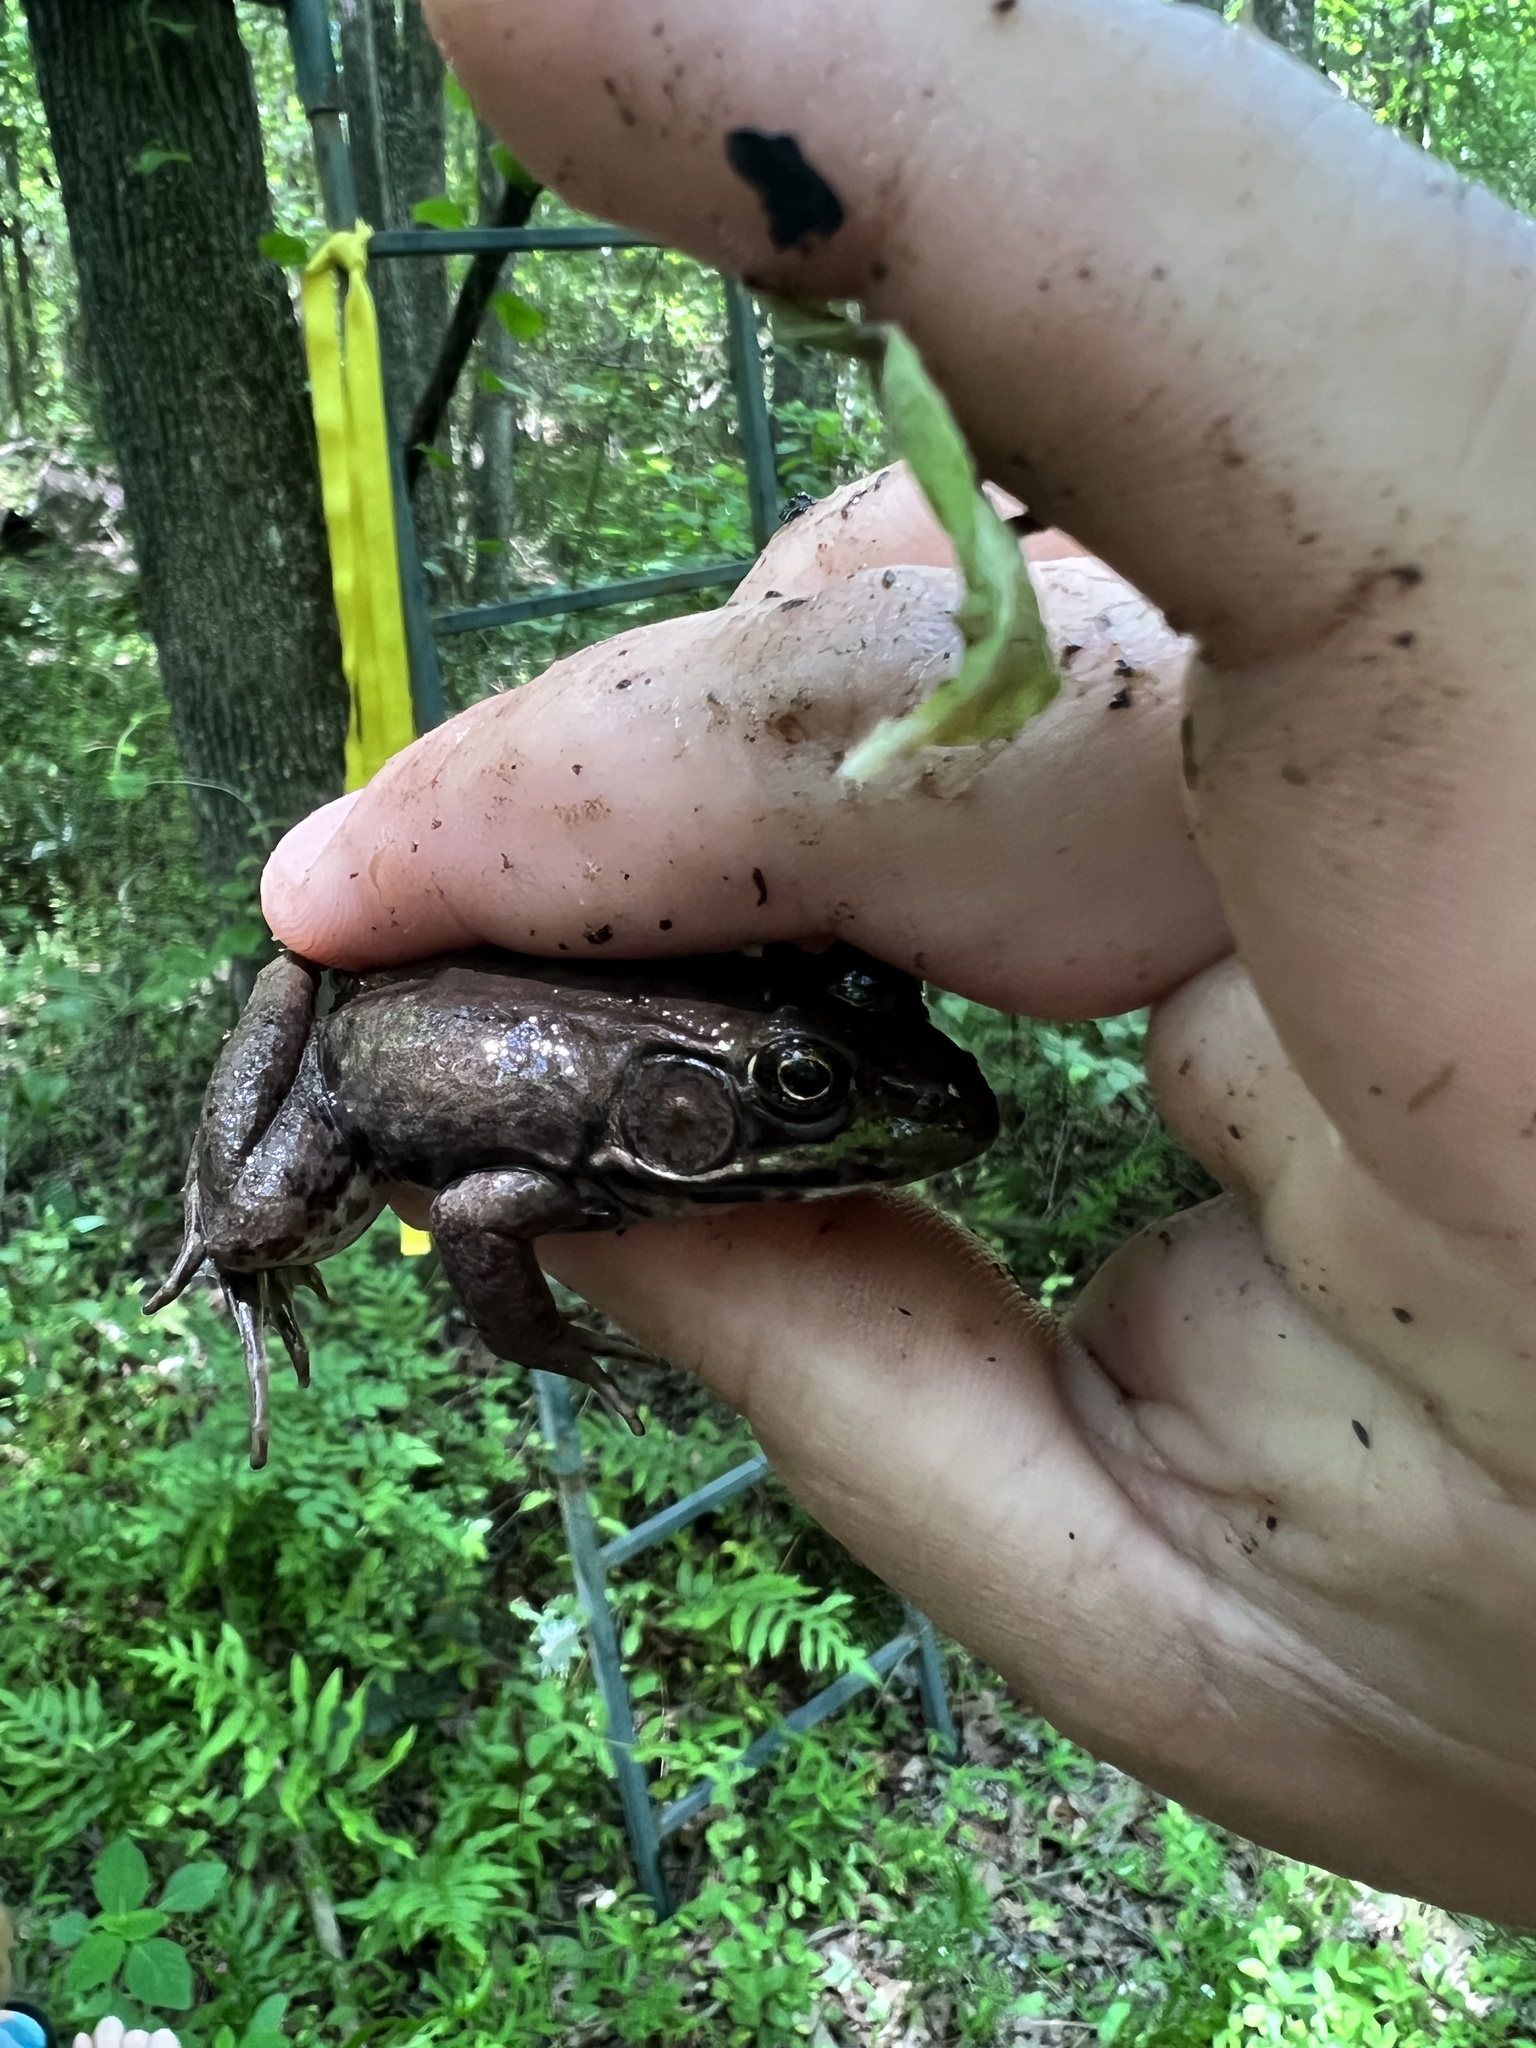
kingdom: Animalia
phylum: Chordata
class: Amphibia
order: Anura
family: Ranidae
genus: Lithobates
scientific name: Lithobates clamitans
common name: Green frog
